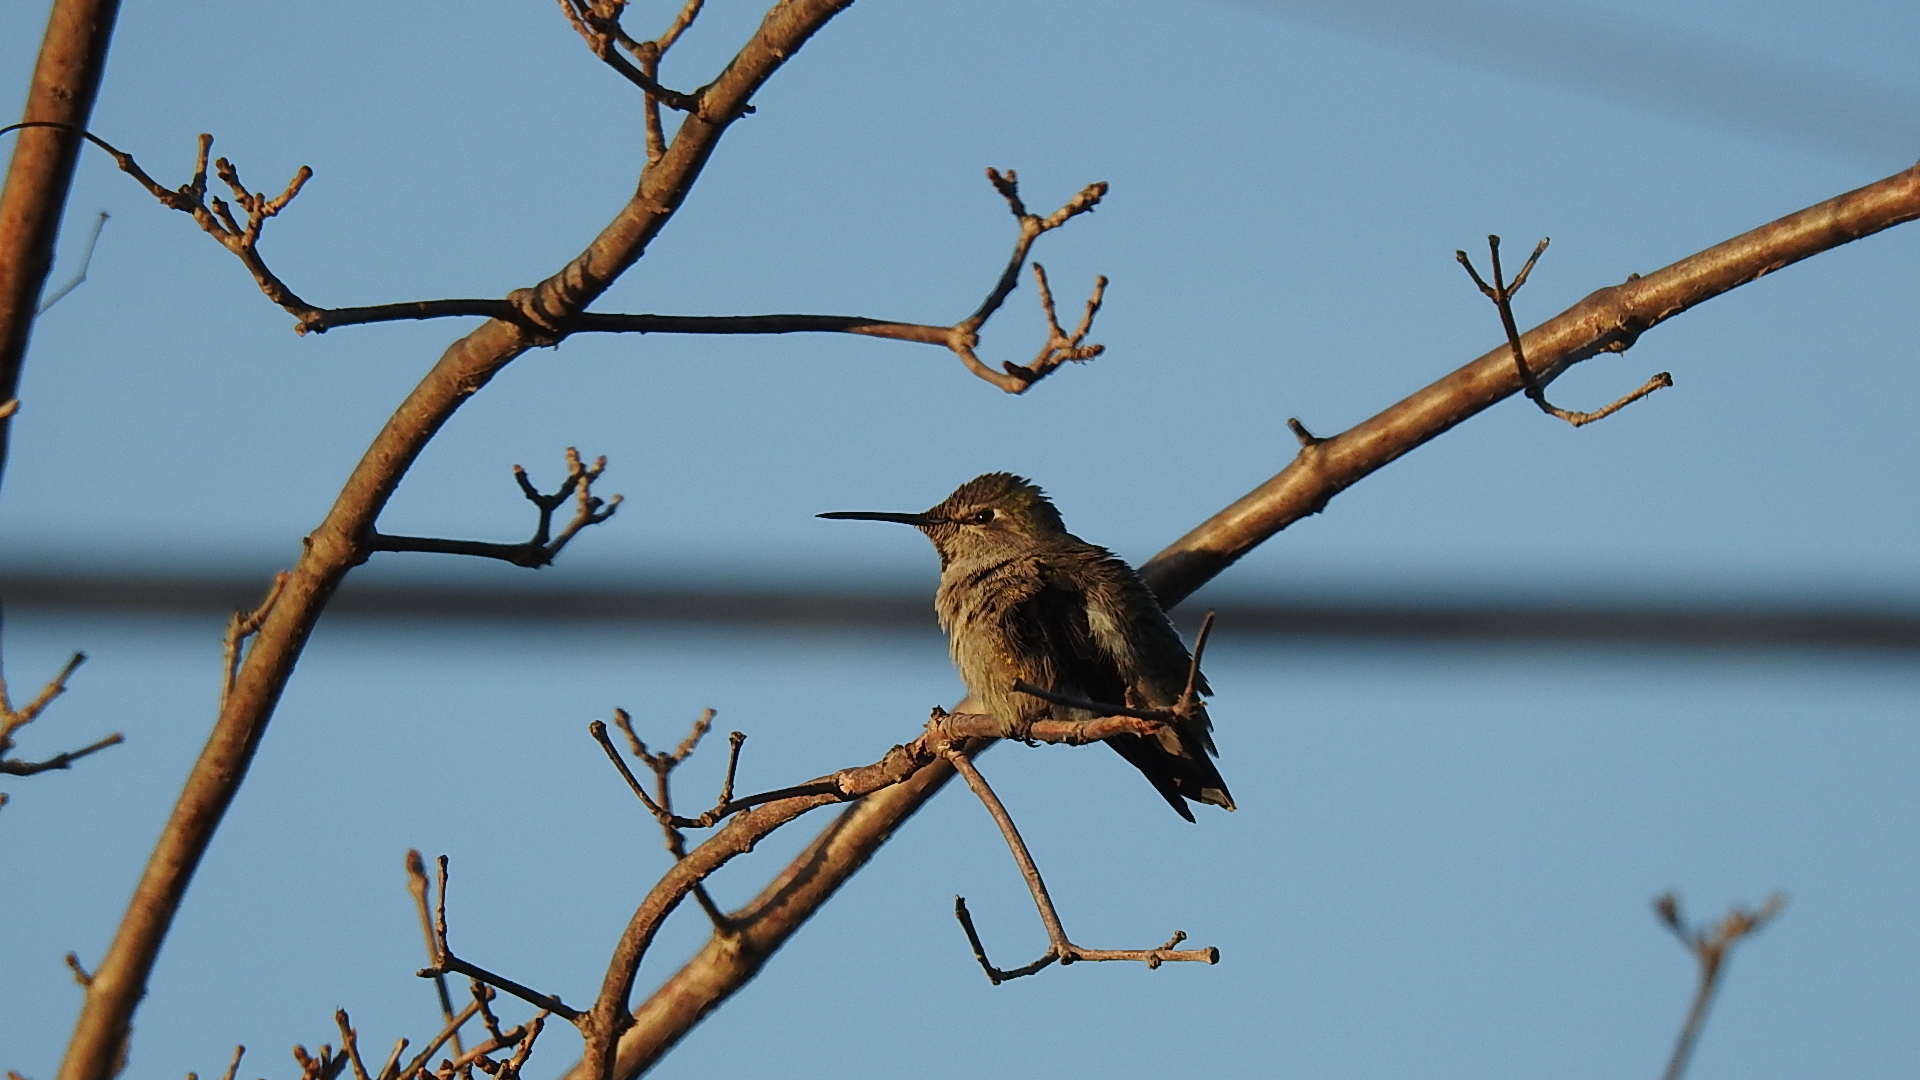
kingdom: Animalia
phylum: Chordata
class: Aves
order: Apodiformes
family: Trochilidae
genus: Calypte
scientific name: Calypte anna
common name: Anna's hummingbird
